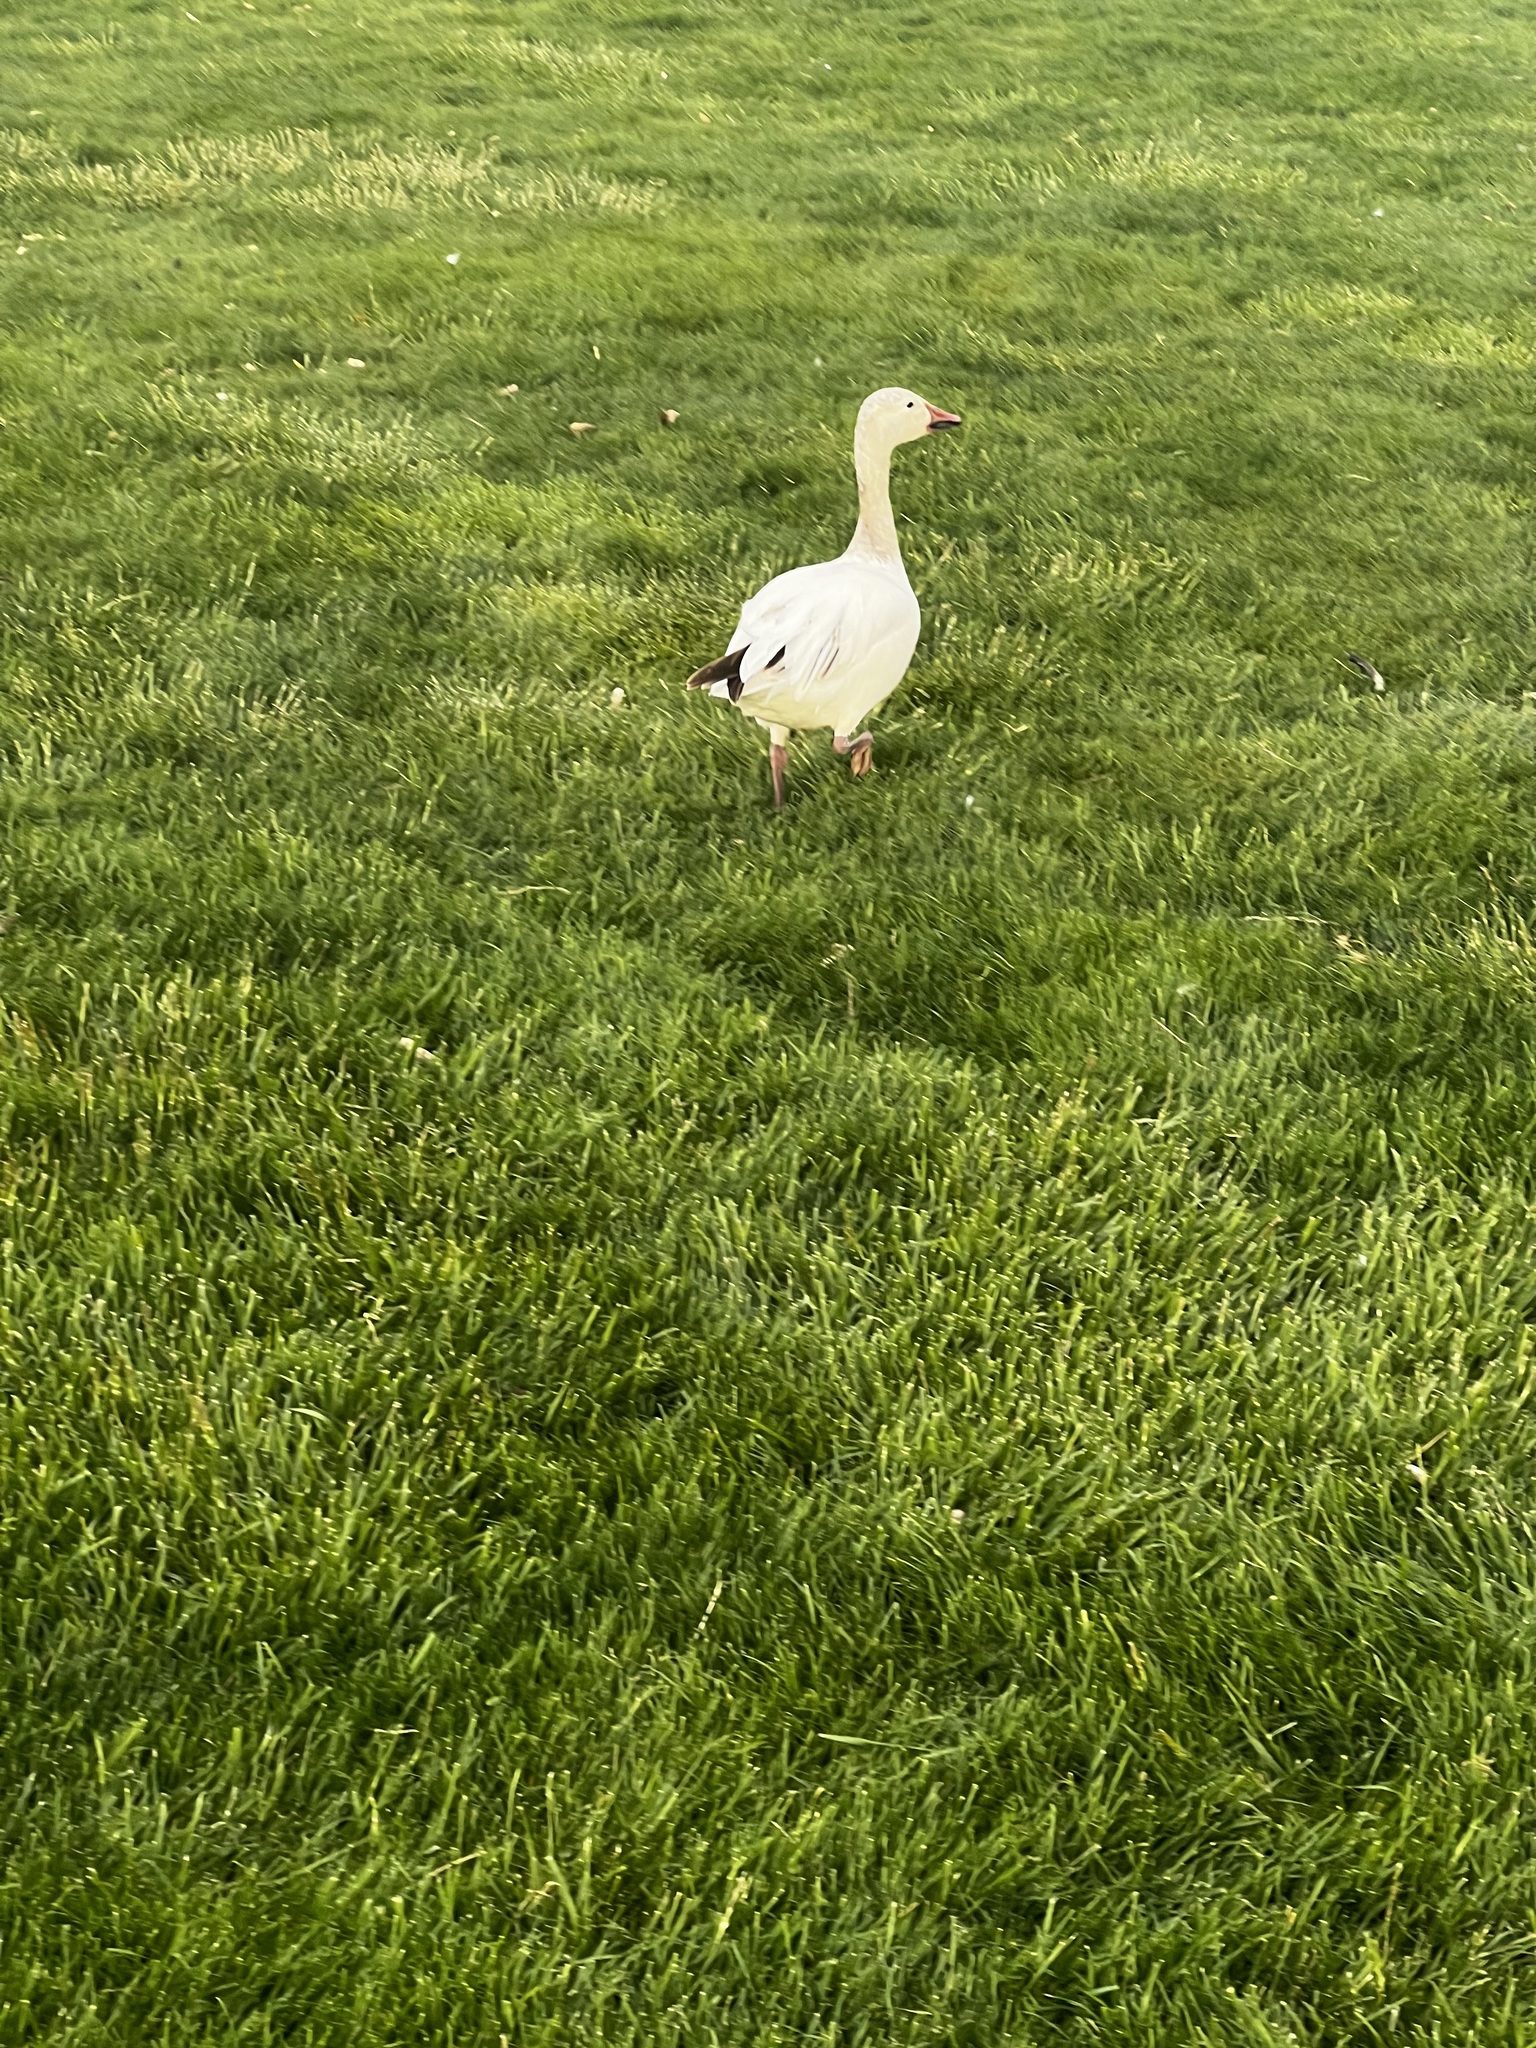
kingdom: Animalia
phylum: Chordata
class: Aves
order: Anseriformes
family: Anatidae
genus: Anser
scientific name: Anser caerulescens
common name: Snow goose
